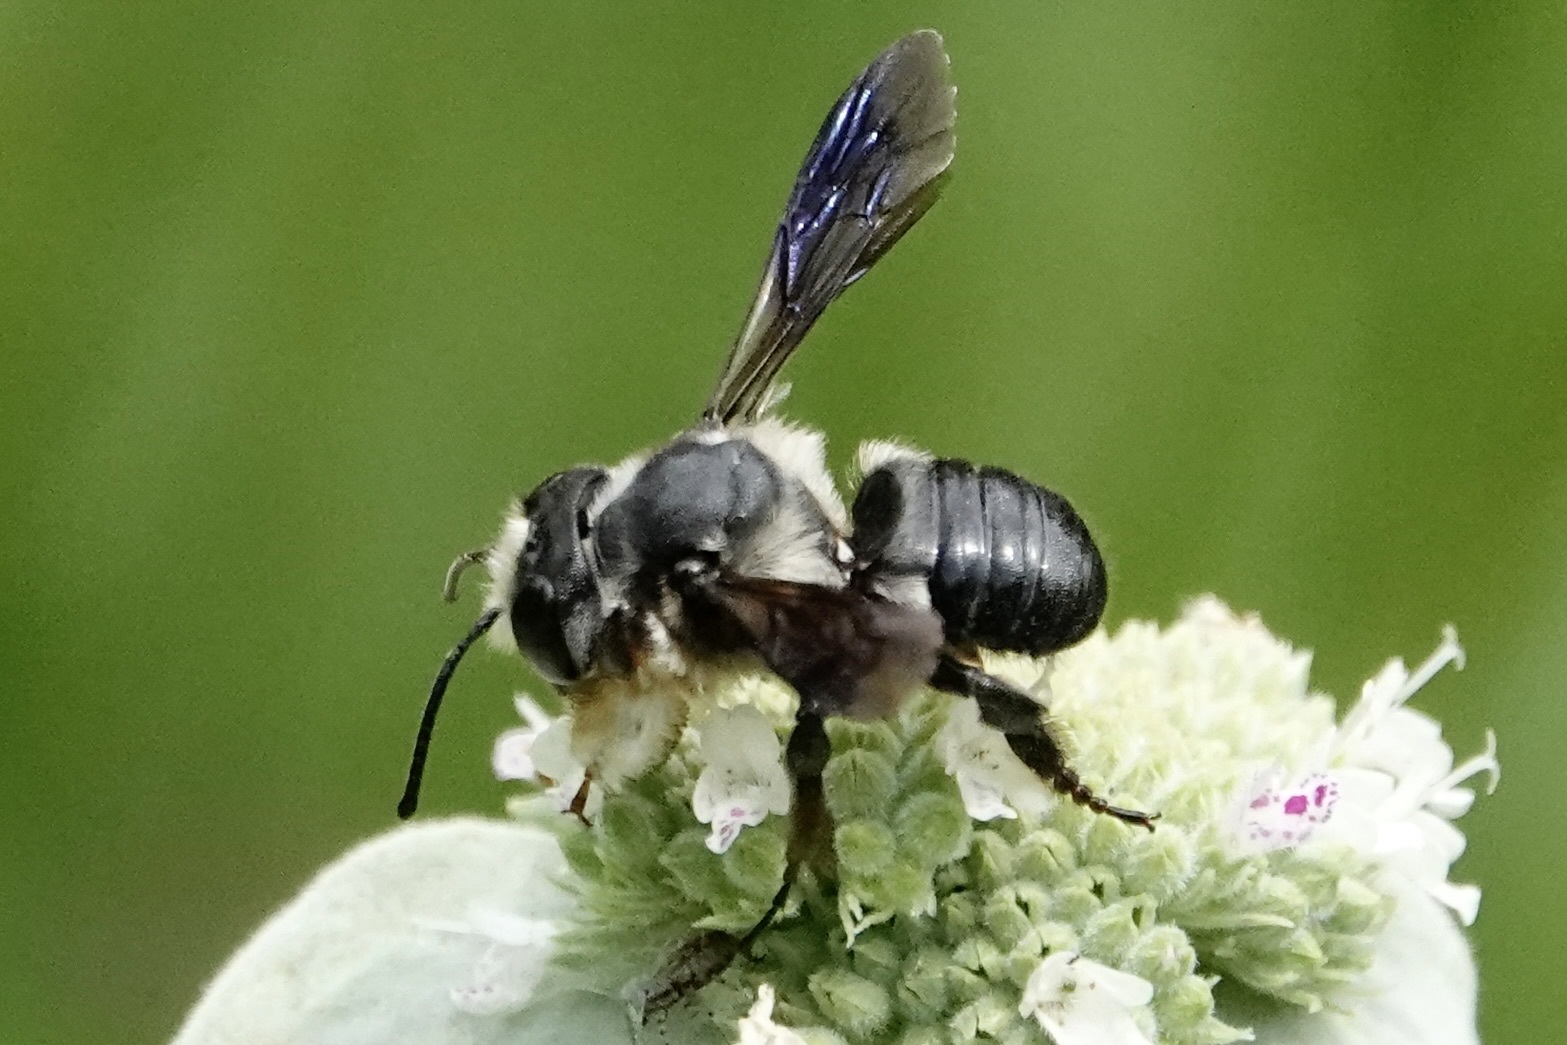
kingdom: Animalia
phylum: Arthropoda
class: Insecta
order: Hymenoptera
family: Megachilidae
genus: Megachile
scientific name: Megachile xylocopoides
